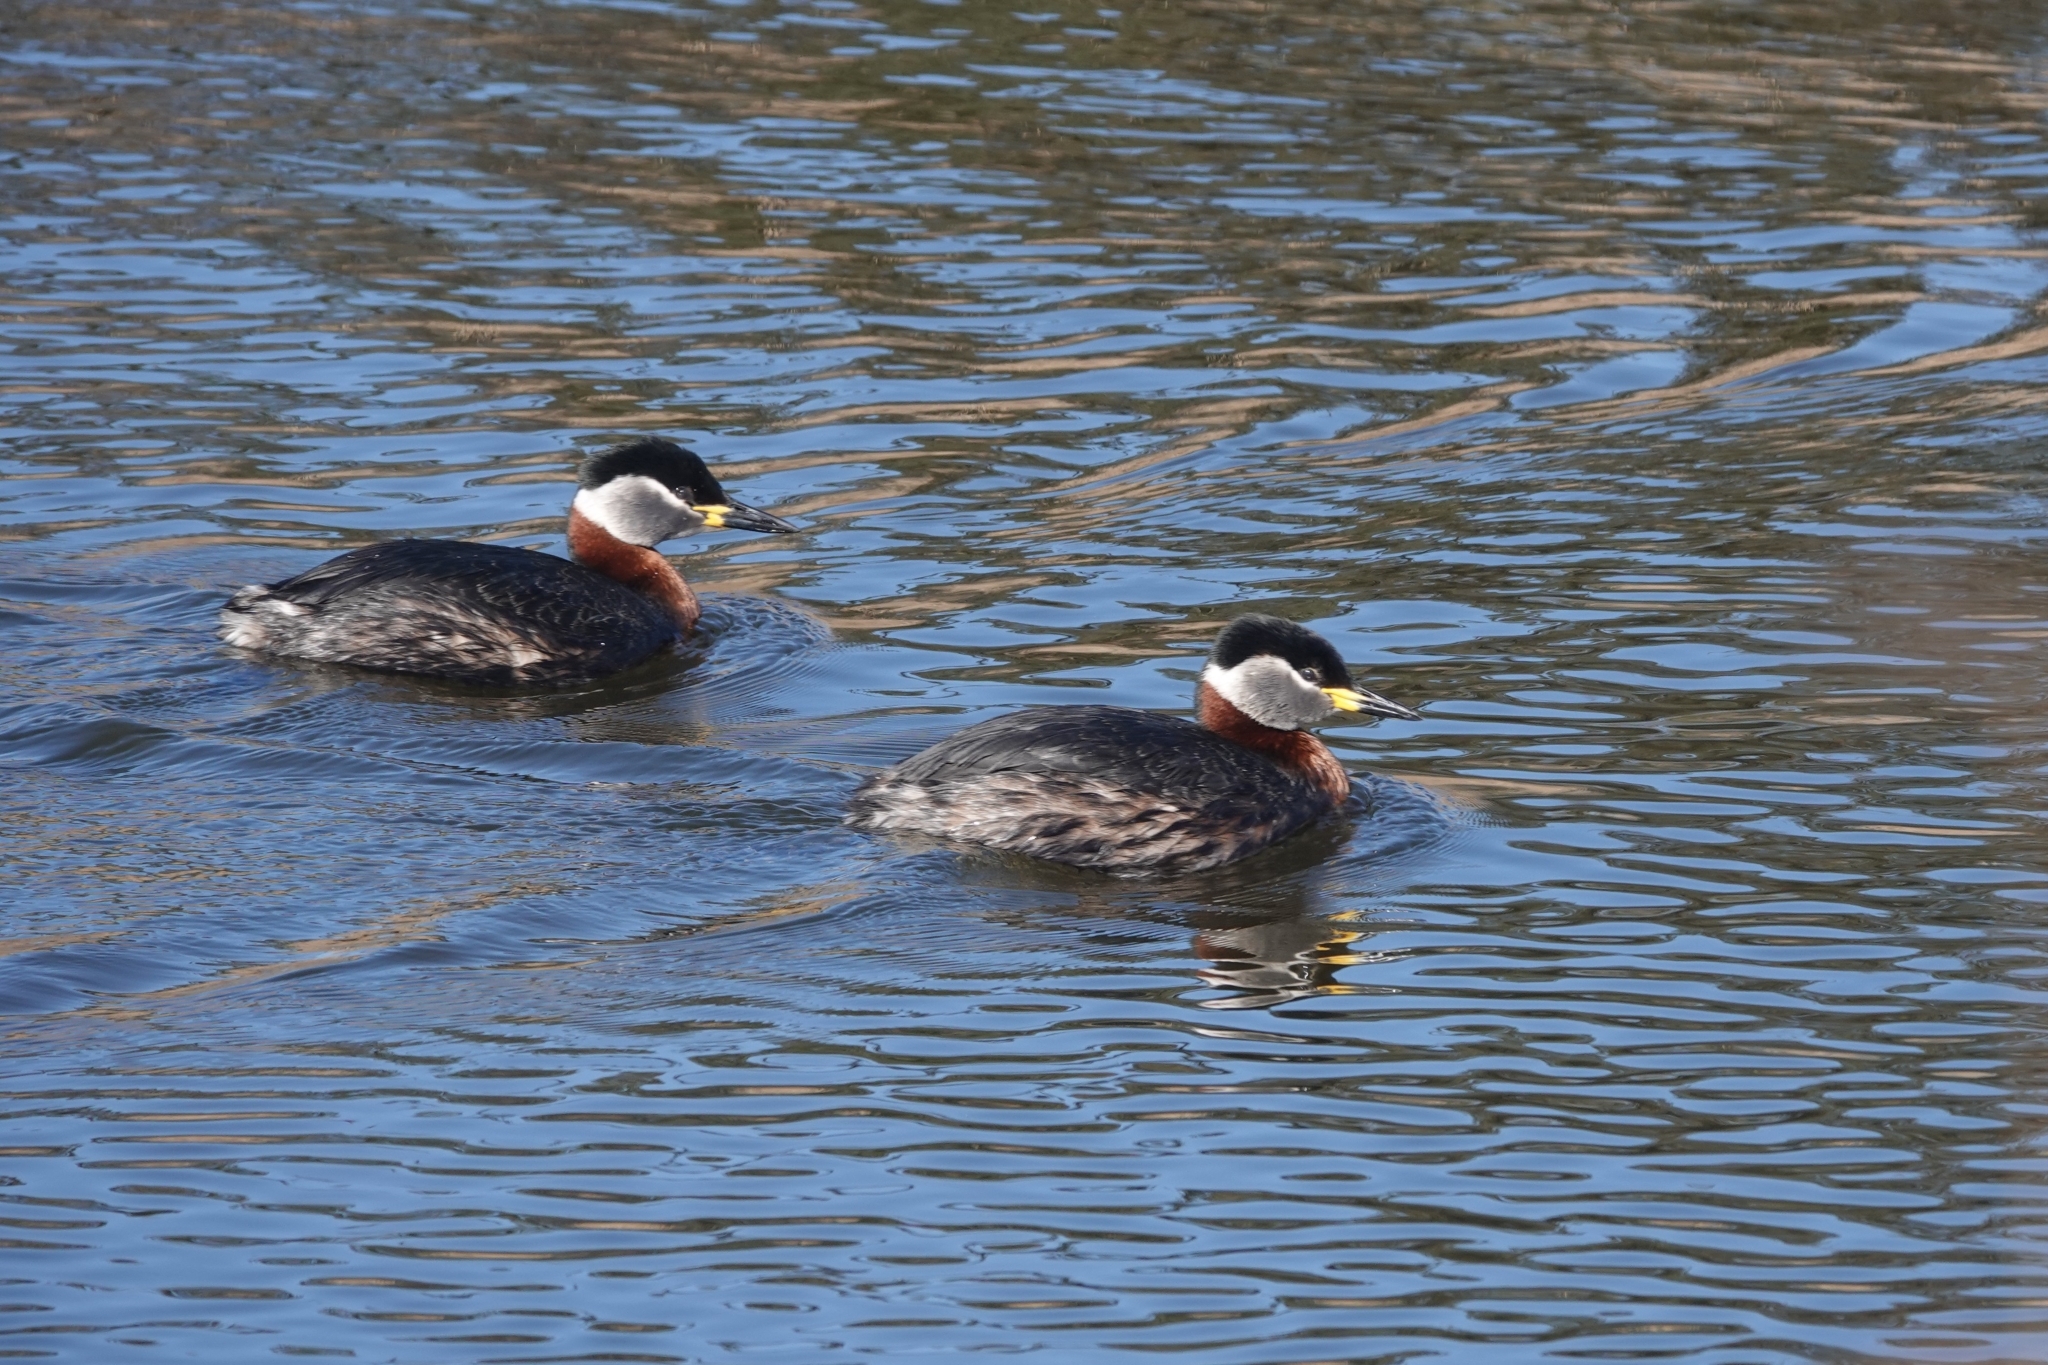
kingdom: Animalia
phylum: Chordata
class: Aves
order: Podicipediformes
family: Podicipedidae
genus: Podiceps
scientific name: Podiceps grisegena
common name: Red-necked grebe
